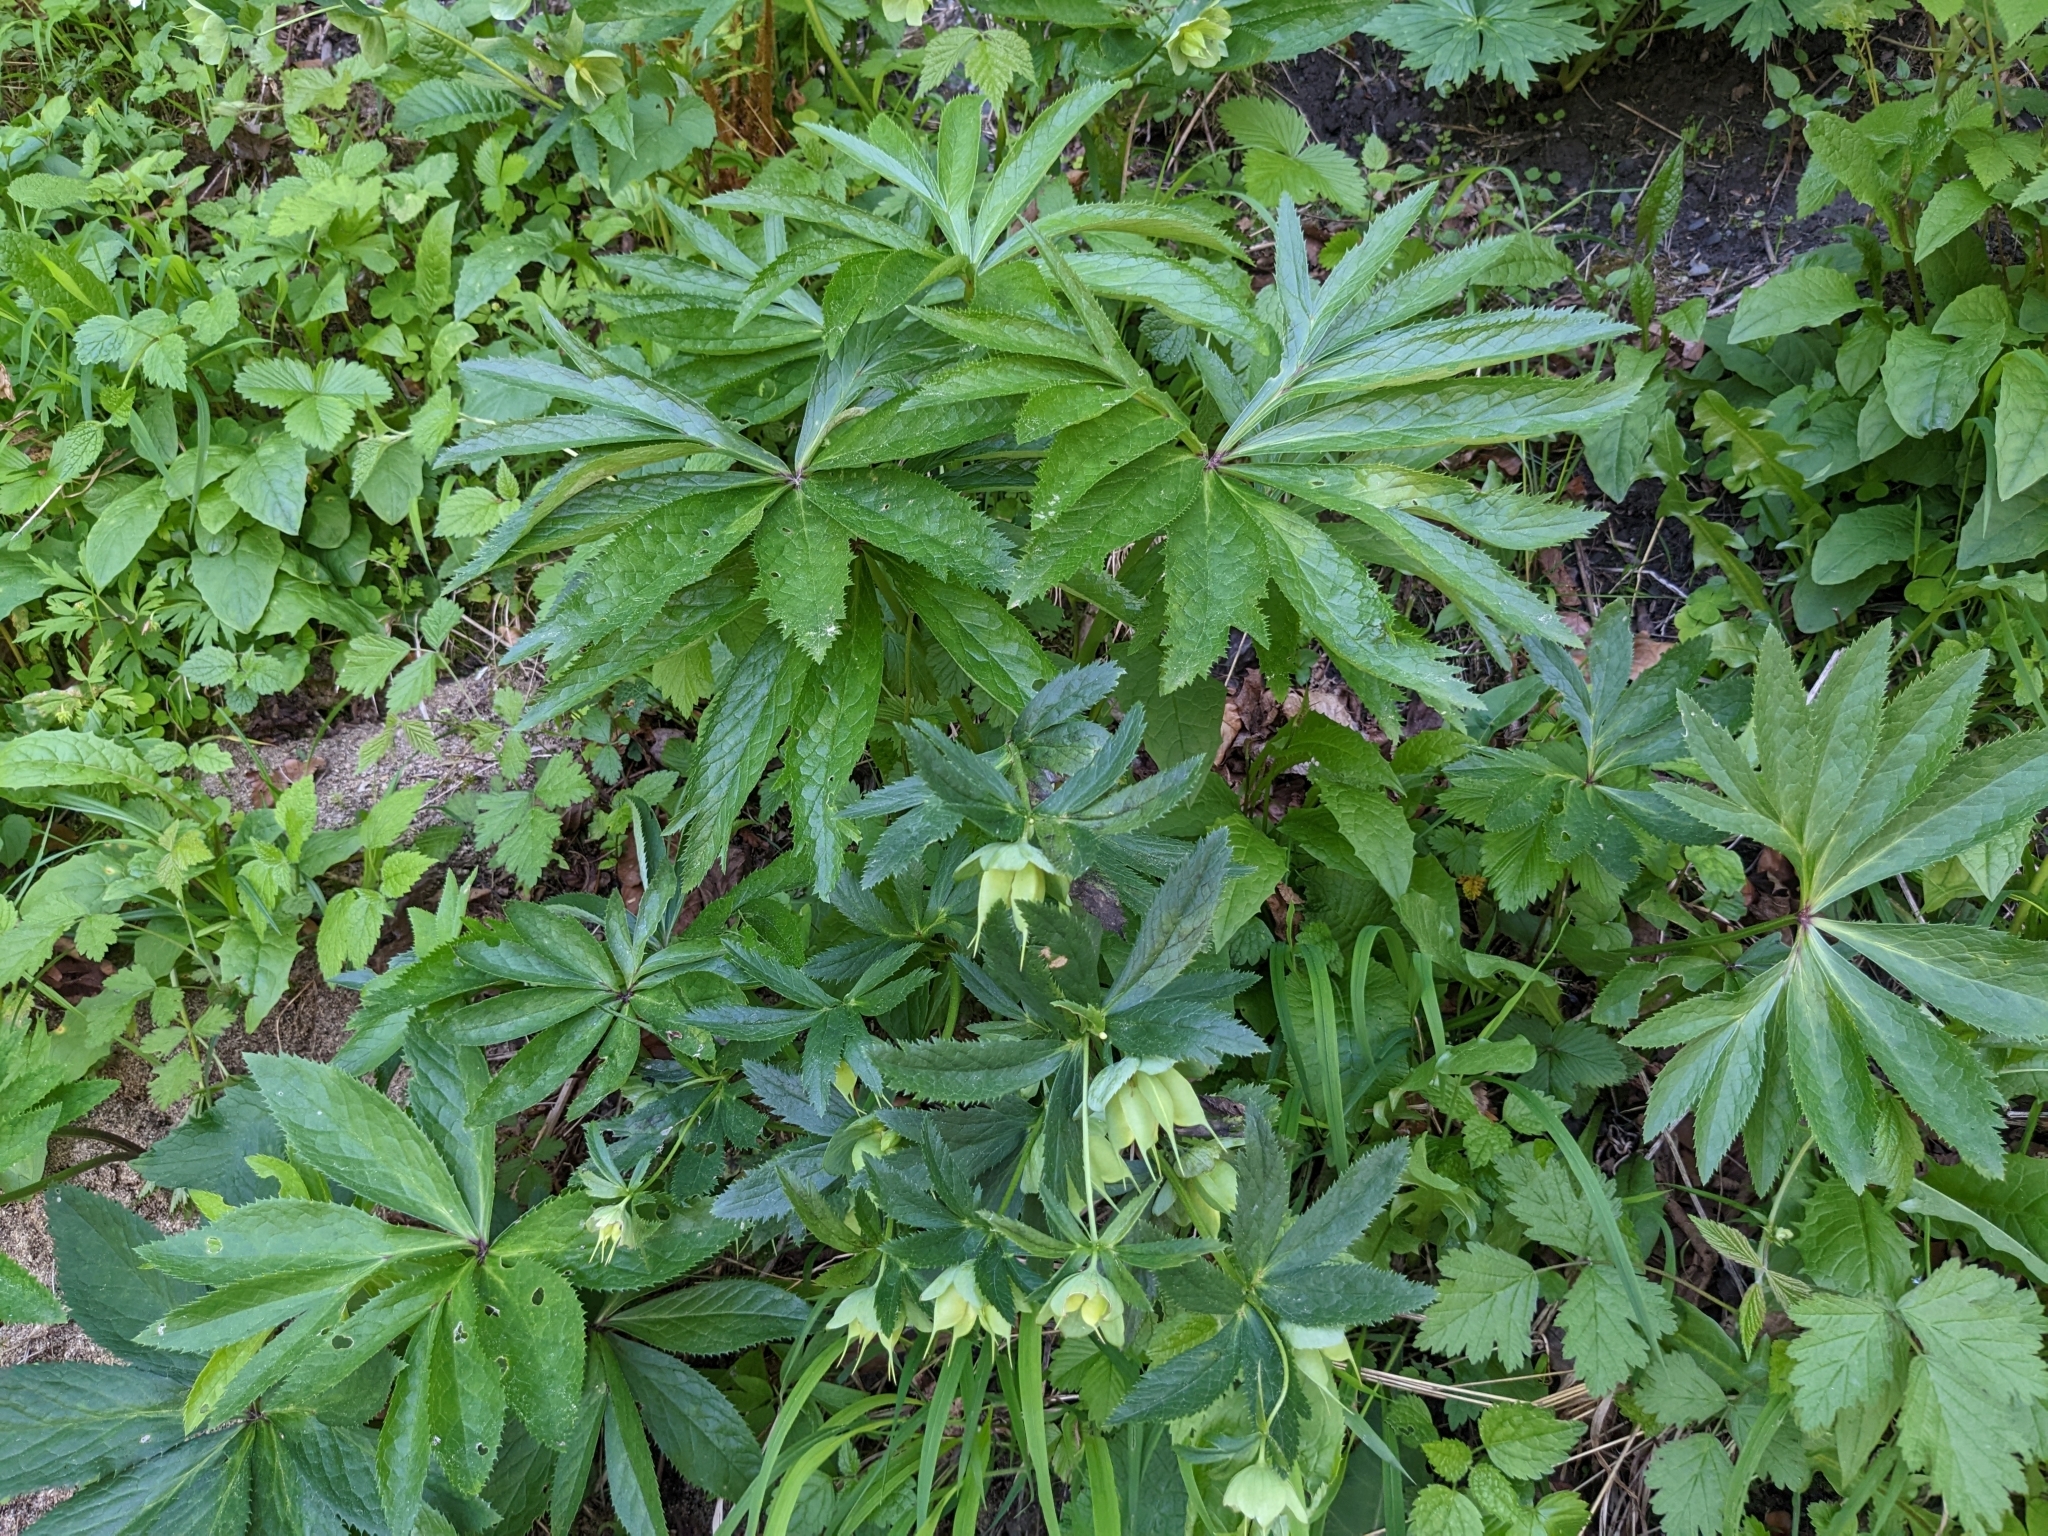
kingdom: Plantae
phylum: Tracheophyta
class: Magnoliopsida
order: Ranunculales
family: Ranunculaceae
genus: Helleborus
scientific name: Helleborus viridis
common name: Green hellebore
